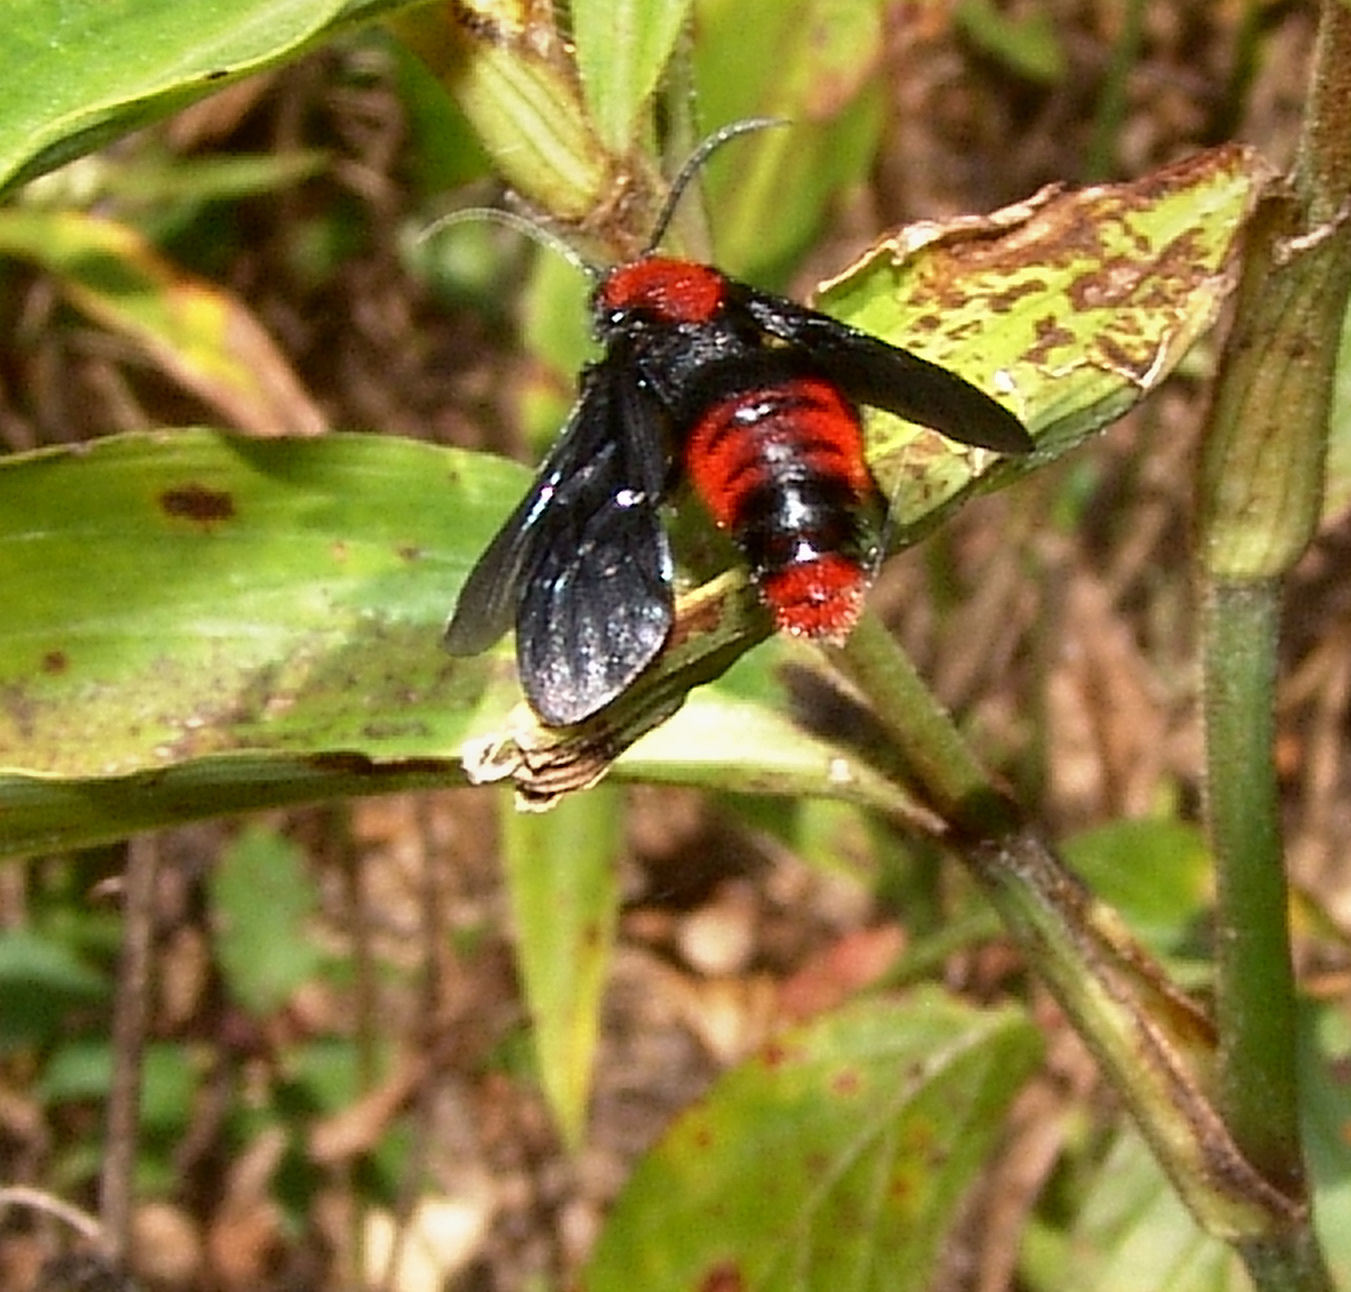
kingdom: Animalia
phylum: Arthropoda
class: Insecta
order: Hymenoptera
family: Mutillidae
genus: Dasymutilla
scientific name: Dasymutilla occidentalis
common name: Common eastern velvet ant
